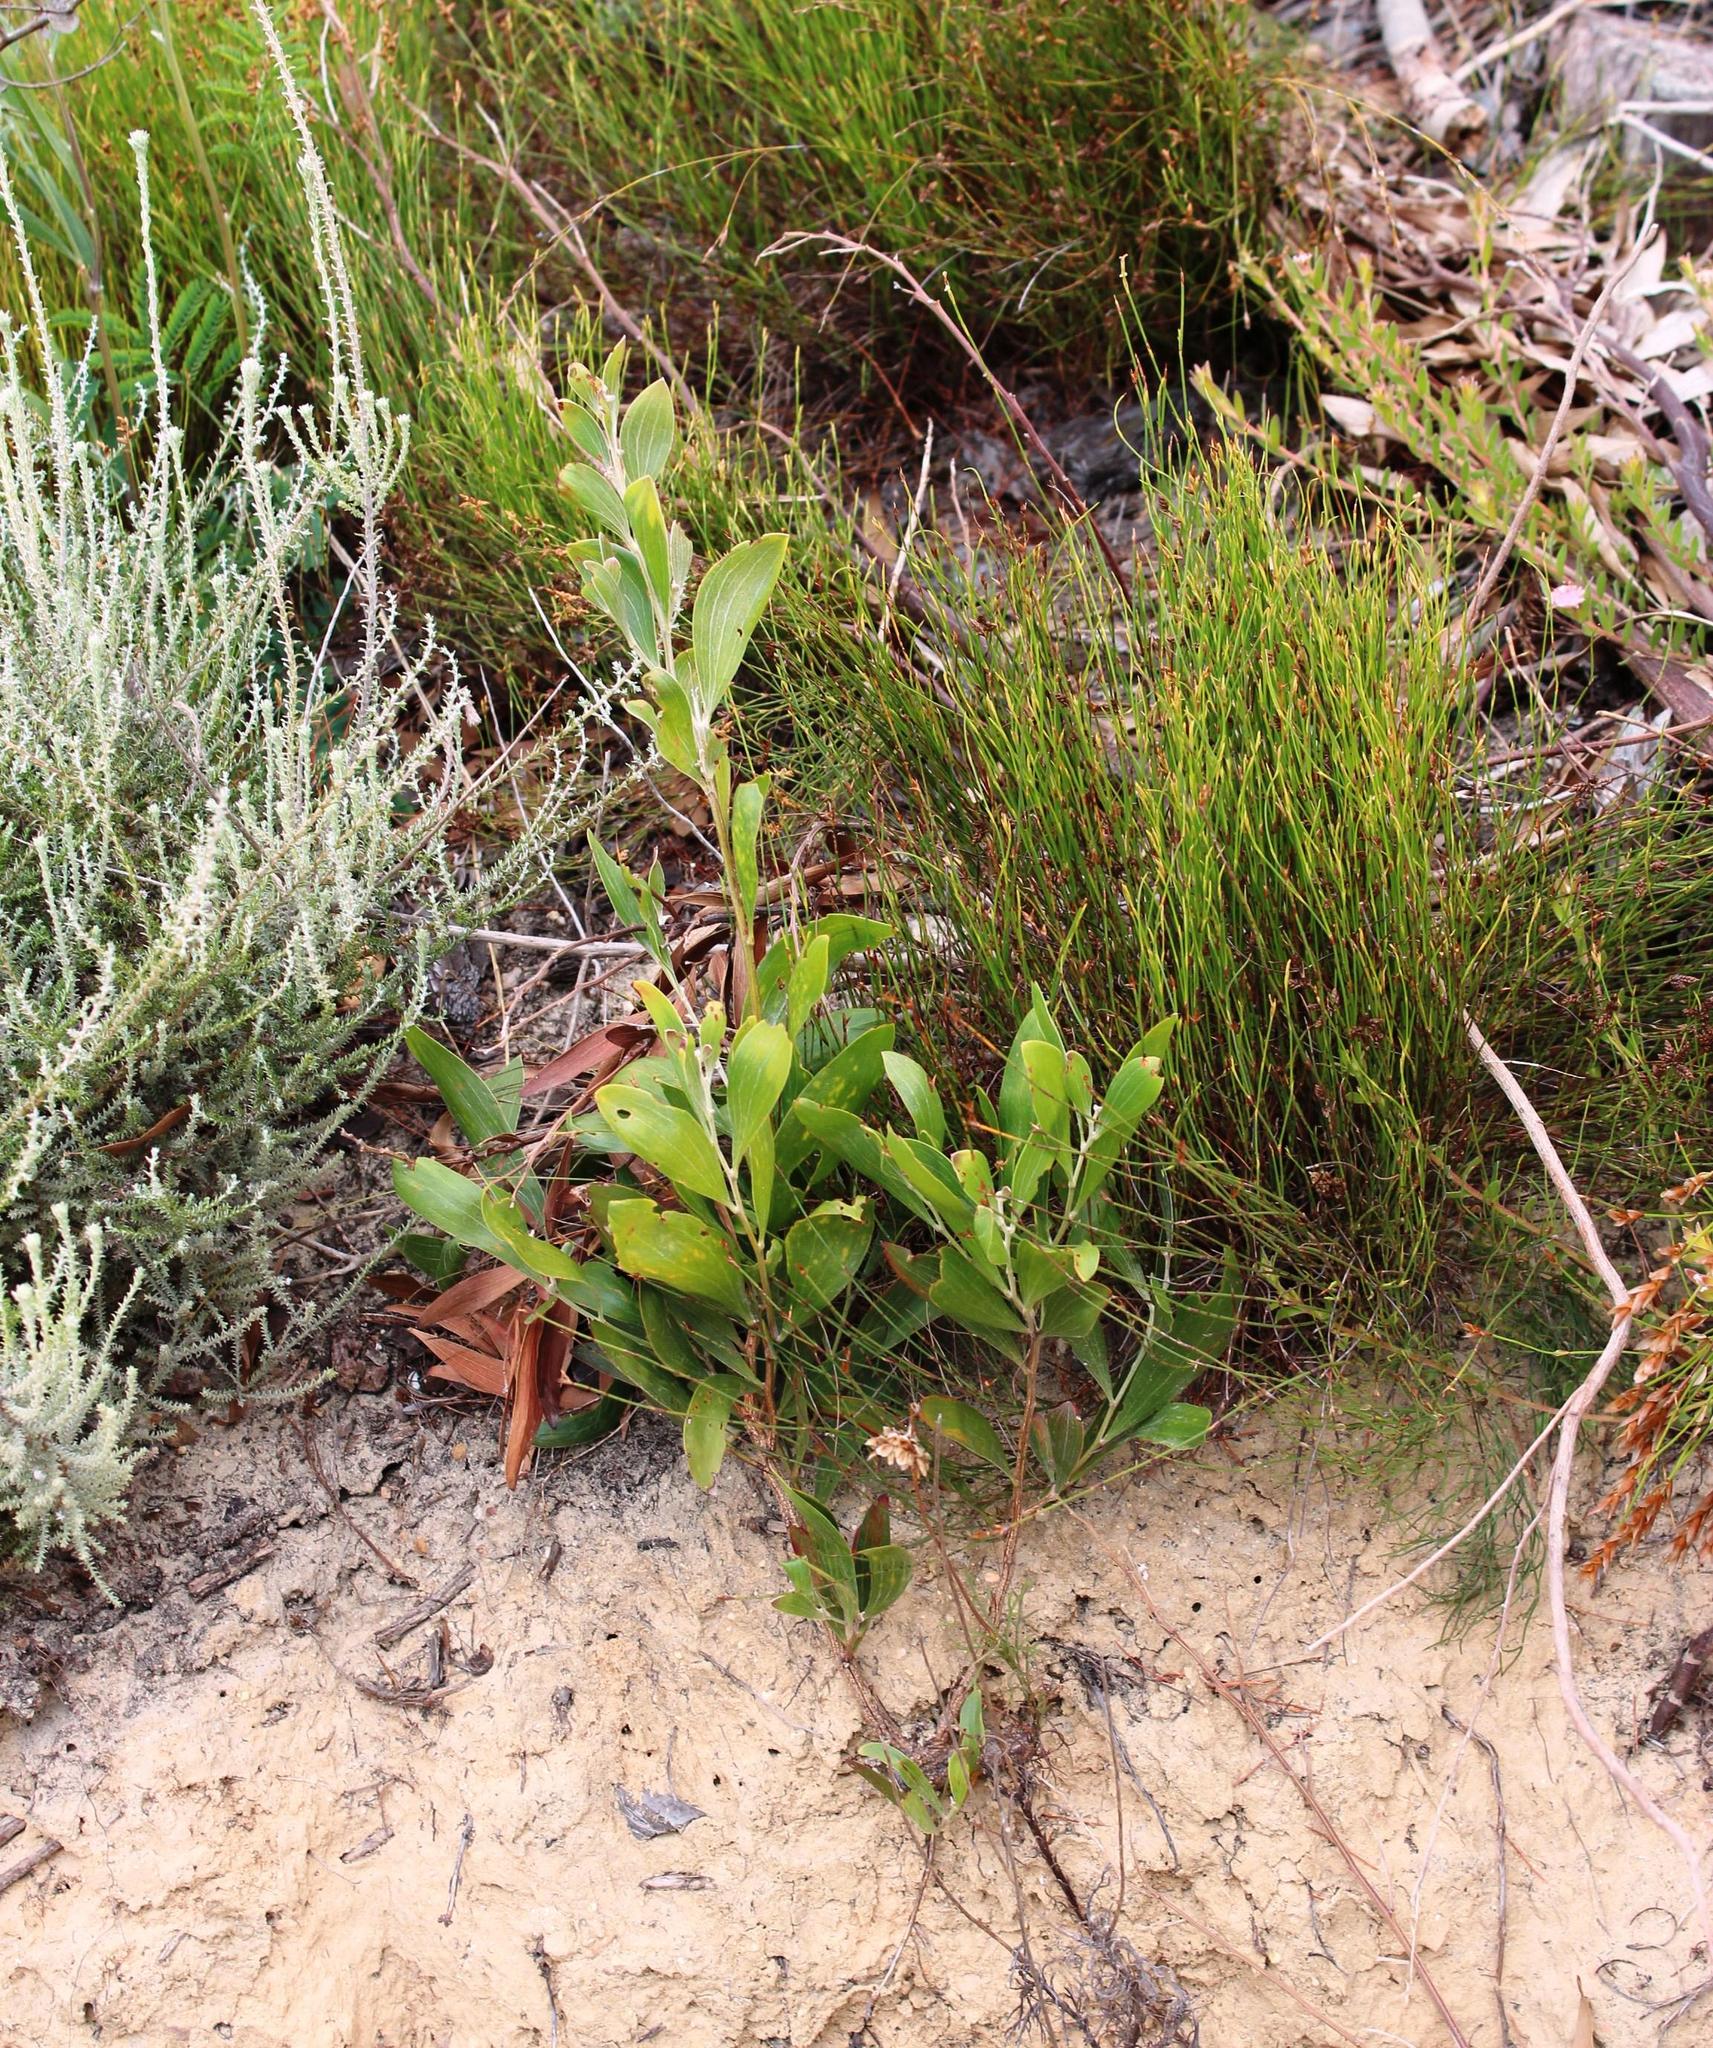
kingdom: Plantae
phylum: Tracheophyta
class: Magnoliopsida
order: Fabales
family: Fabaceae
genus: Acacia
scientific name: Acacia melanoxylon
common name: Blackwood
